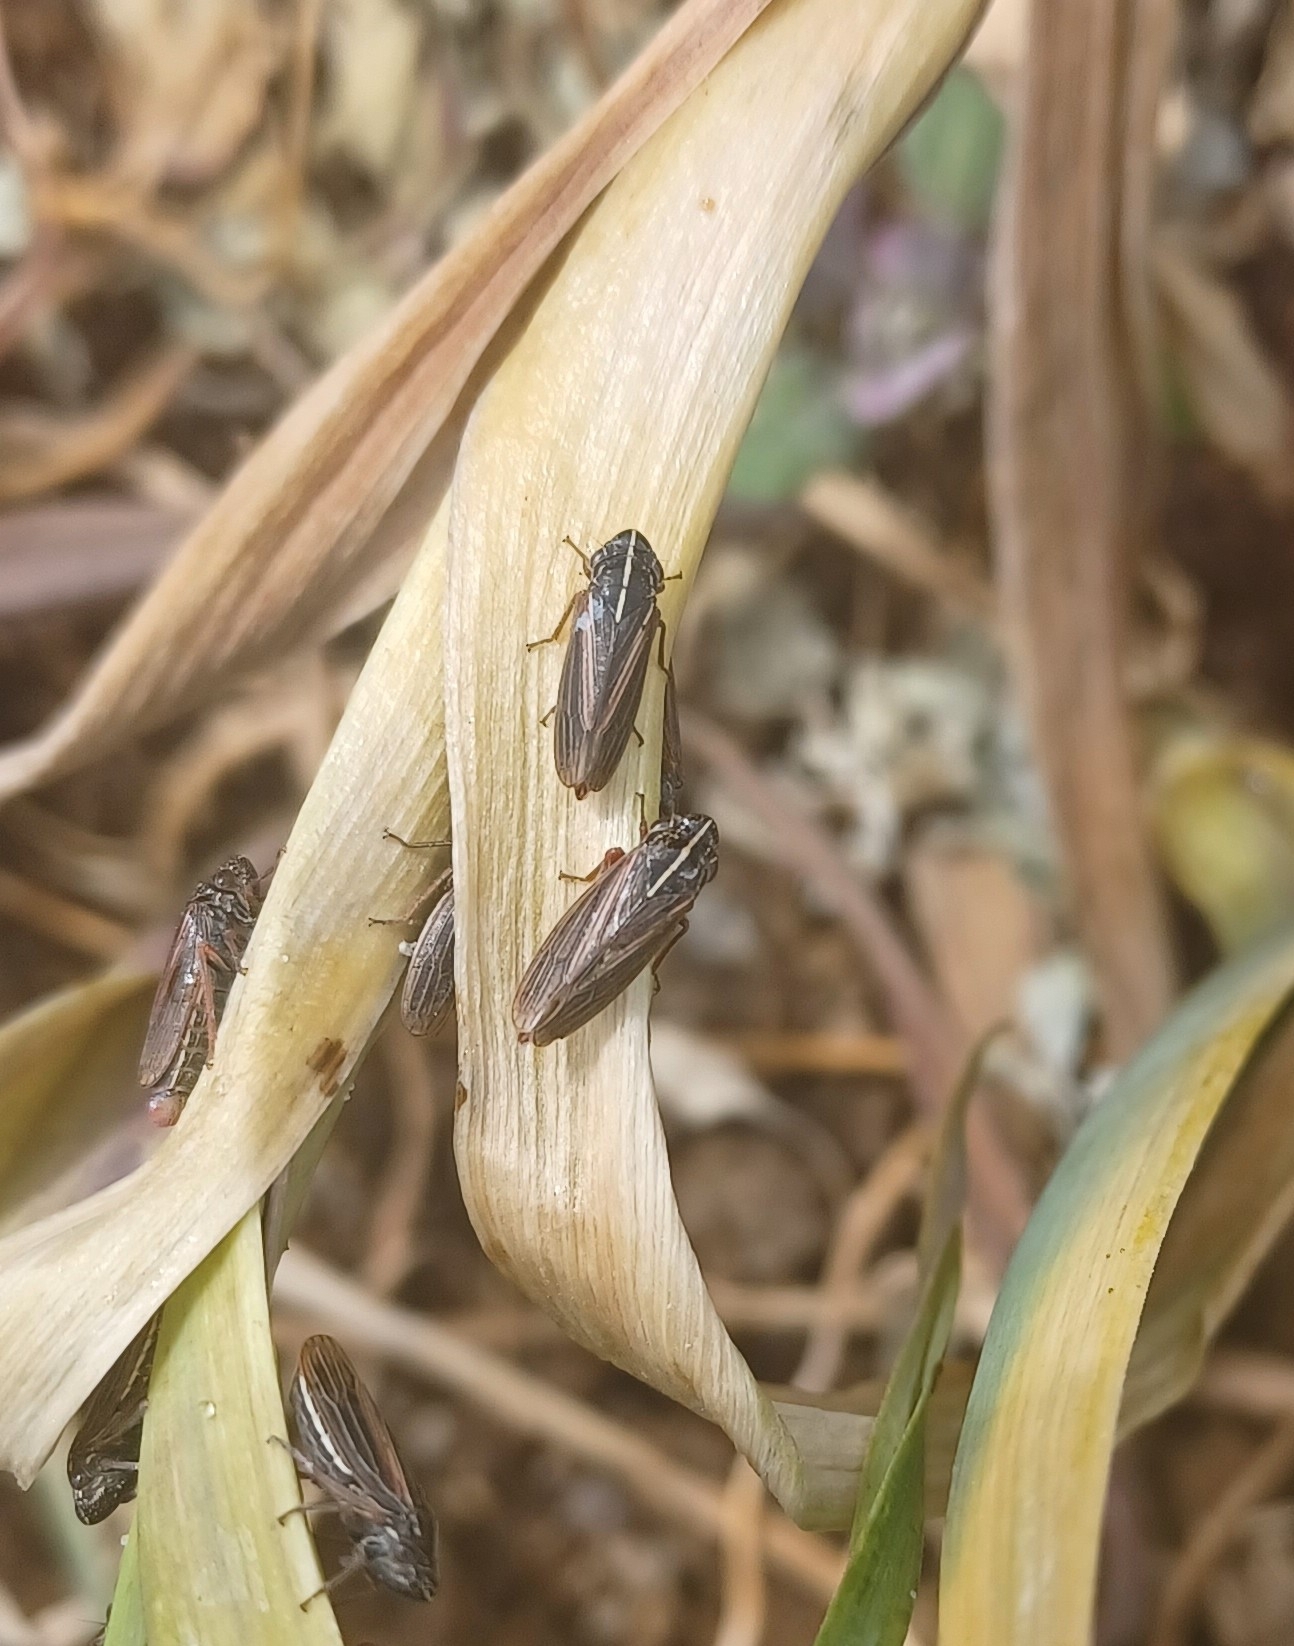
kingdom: Animalia
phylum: Arthropoda
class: Insecta
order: Hemiptera
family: Cicadellidae
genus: Anacuerna
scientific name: Anacuerna centrolinea
